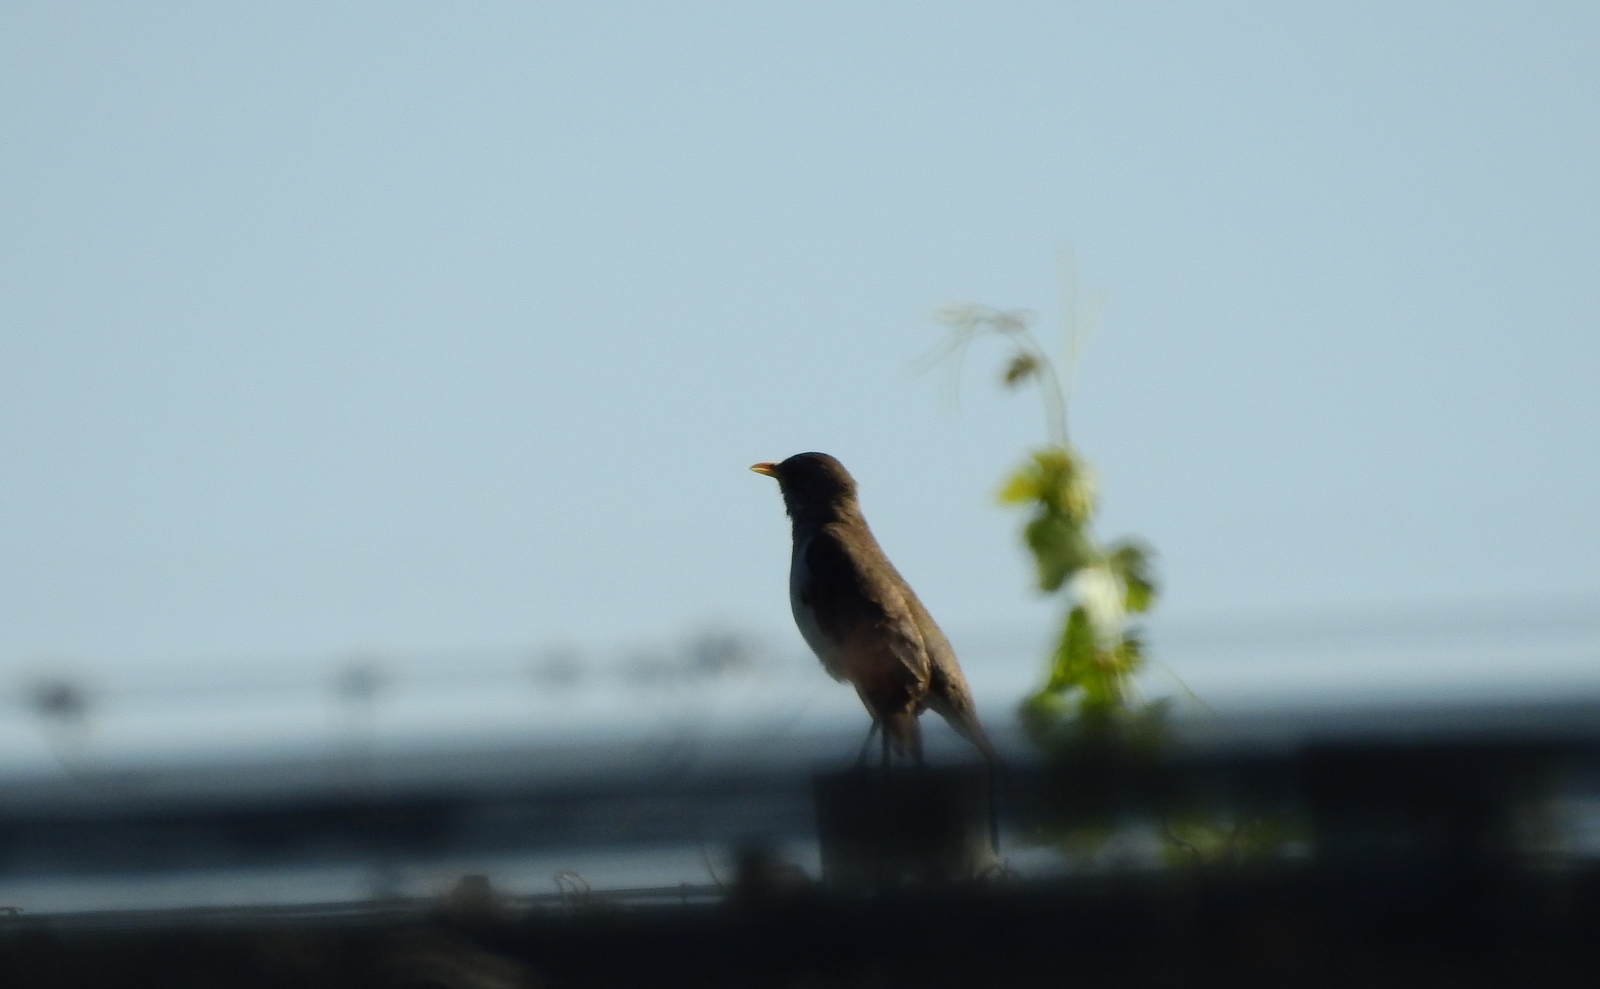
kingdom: Animalia
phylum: Chordata
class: Aves
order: Passeriformes
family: Turdidae
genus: Turdus
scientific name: Turdus amaurochalinus
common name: Creamy-bellied thrush
